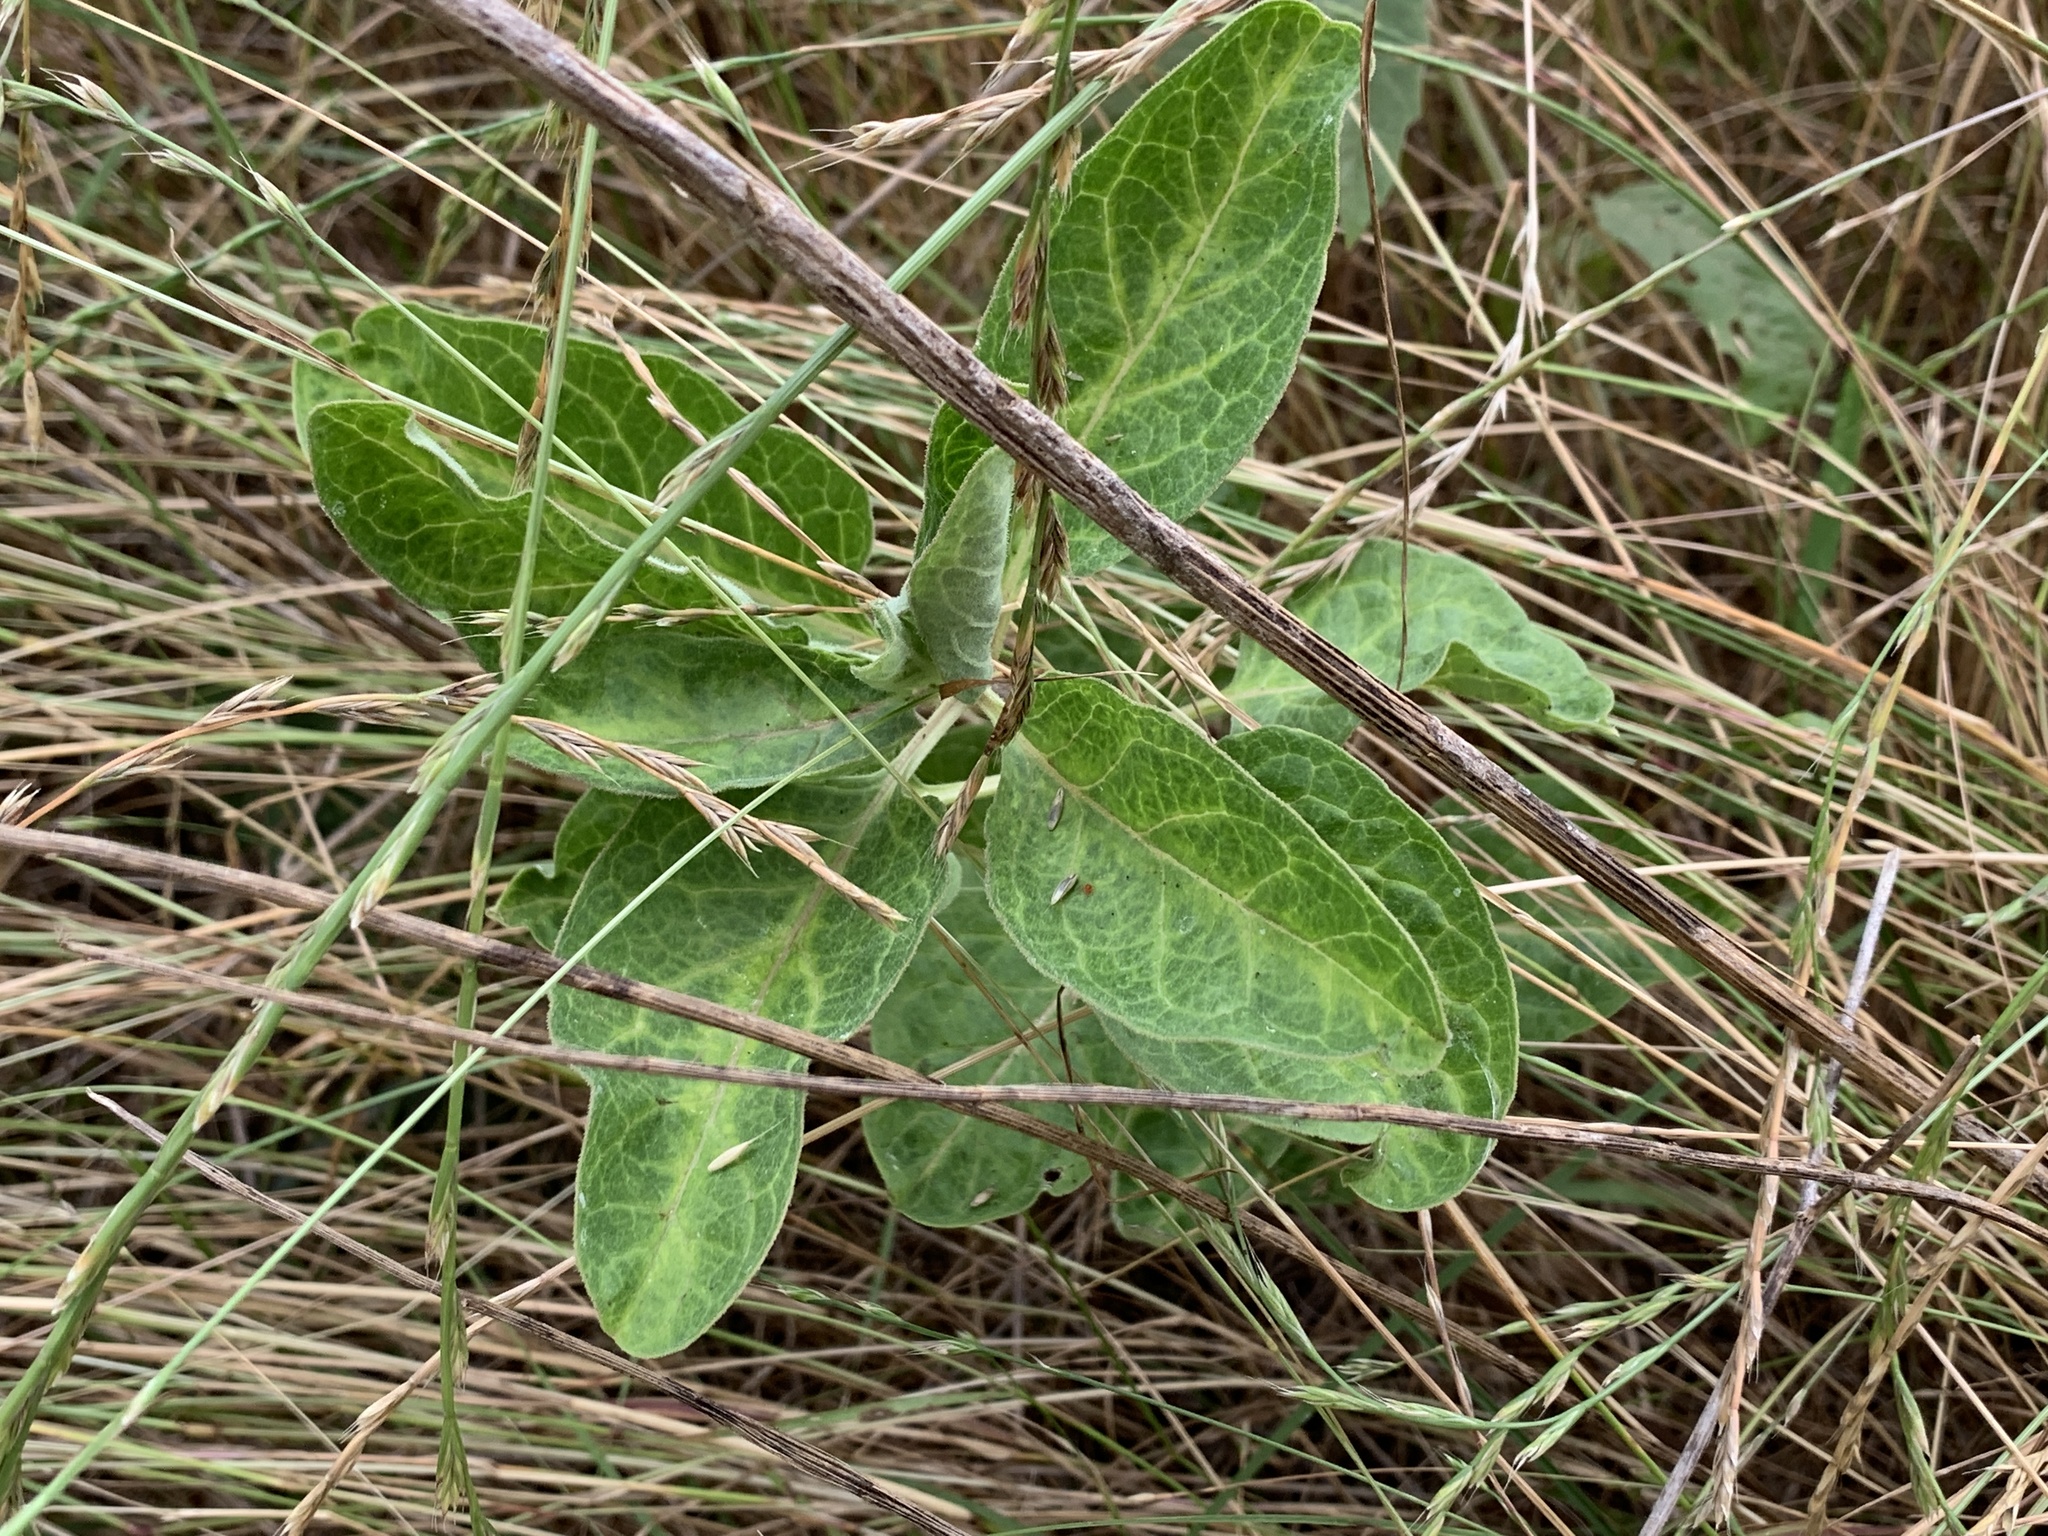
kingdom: Plantae
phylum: Tracheophyta
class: Magnoliopsida
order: Gentianales
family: Apocynaceae
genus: Asclepias
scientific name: Asclepias oenotheroides
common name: Zizotes milkweed
